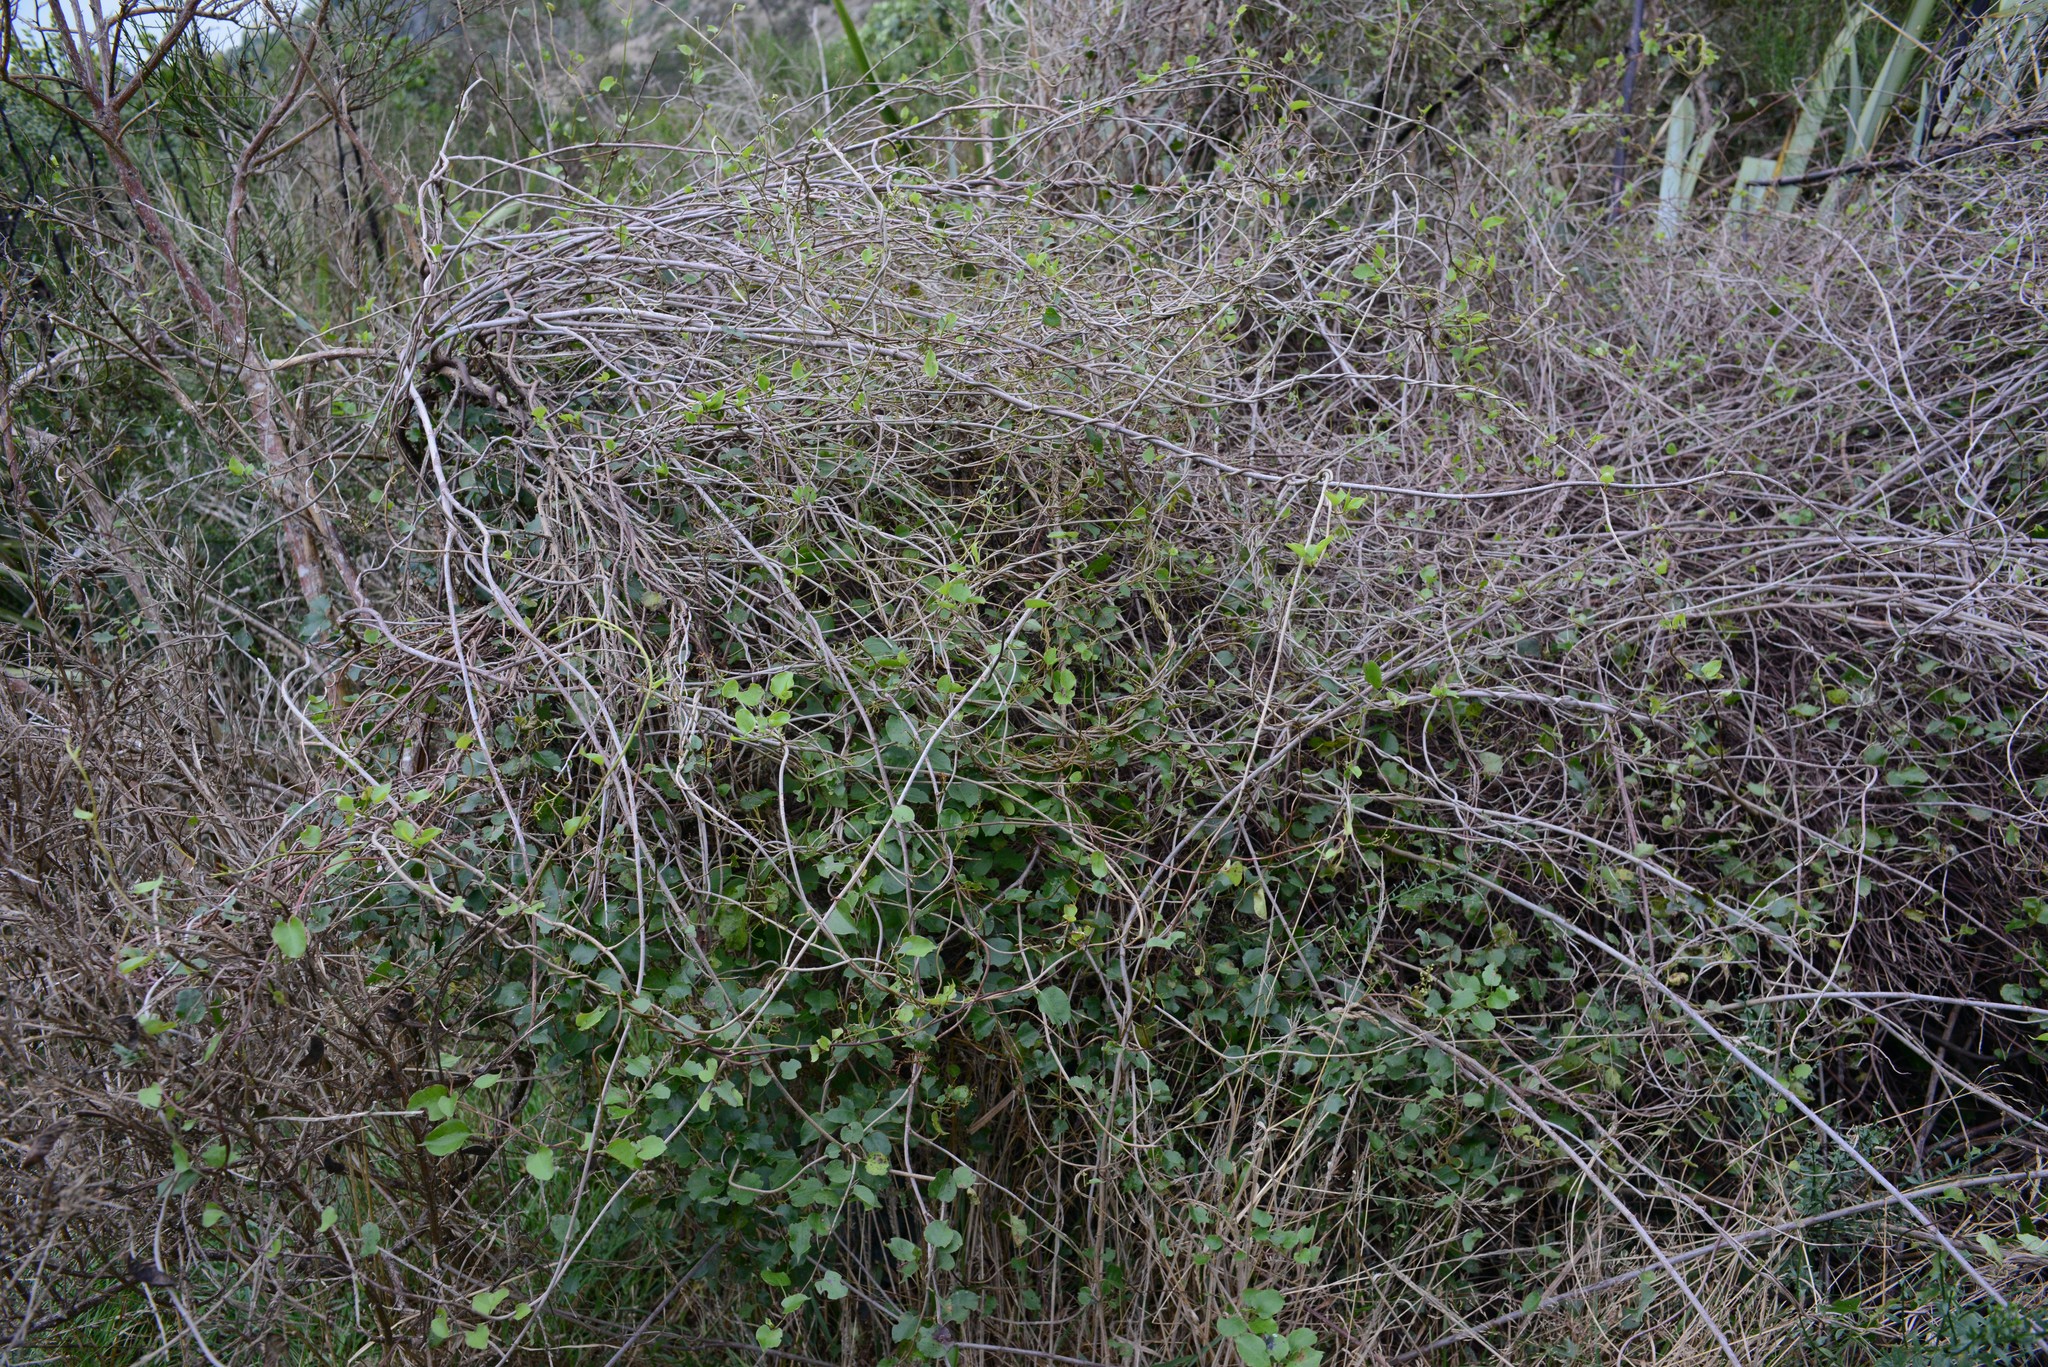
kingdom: Plantae
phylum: Tracheophyta
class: Magnoliopsida
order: Caryophyllales
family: Polygonaceae
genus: Muehlenbeckia
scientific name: Muehlenbeckia australis
